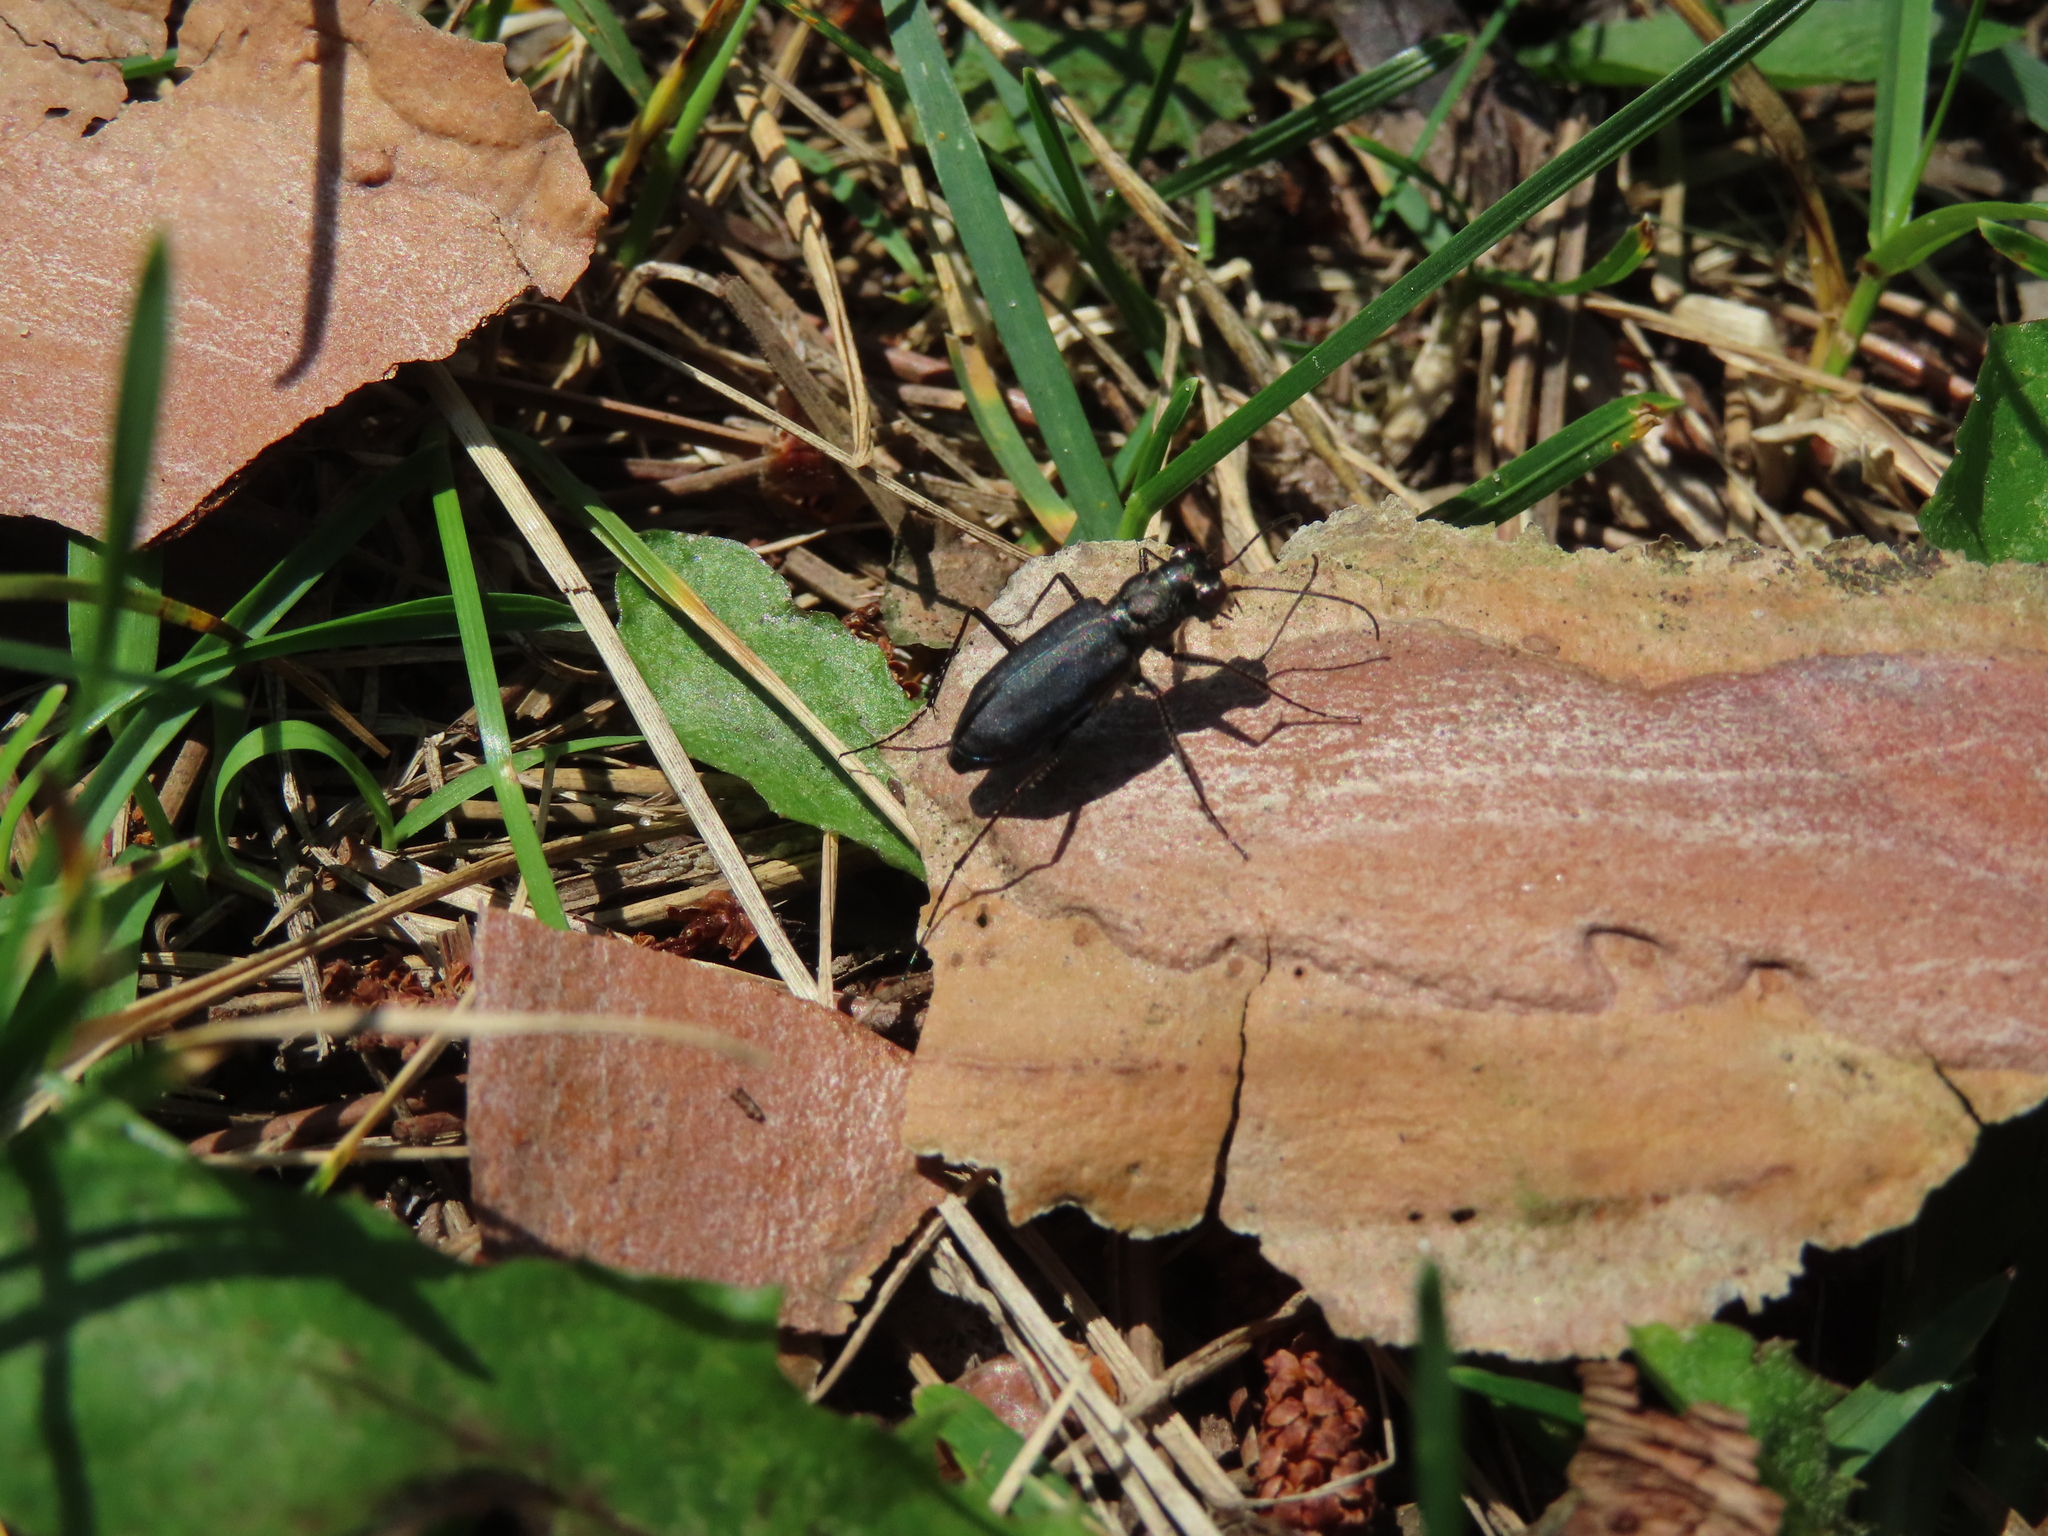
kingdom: Animalia
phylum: Arthropoda
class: Insecta
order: Coleoptera
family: Carabidae
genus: Cicindela
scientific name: Cicindela punctulata
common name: Punctured tiger beetle
